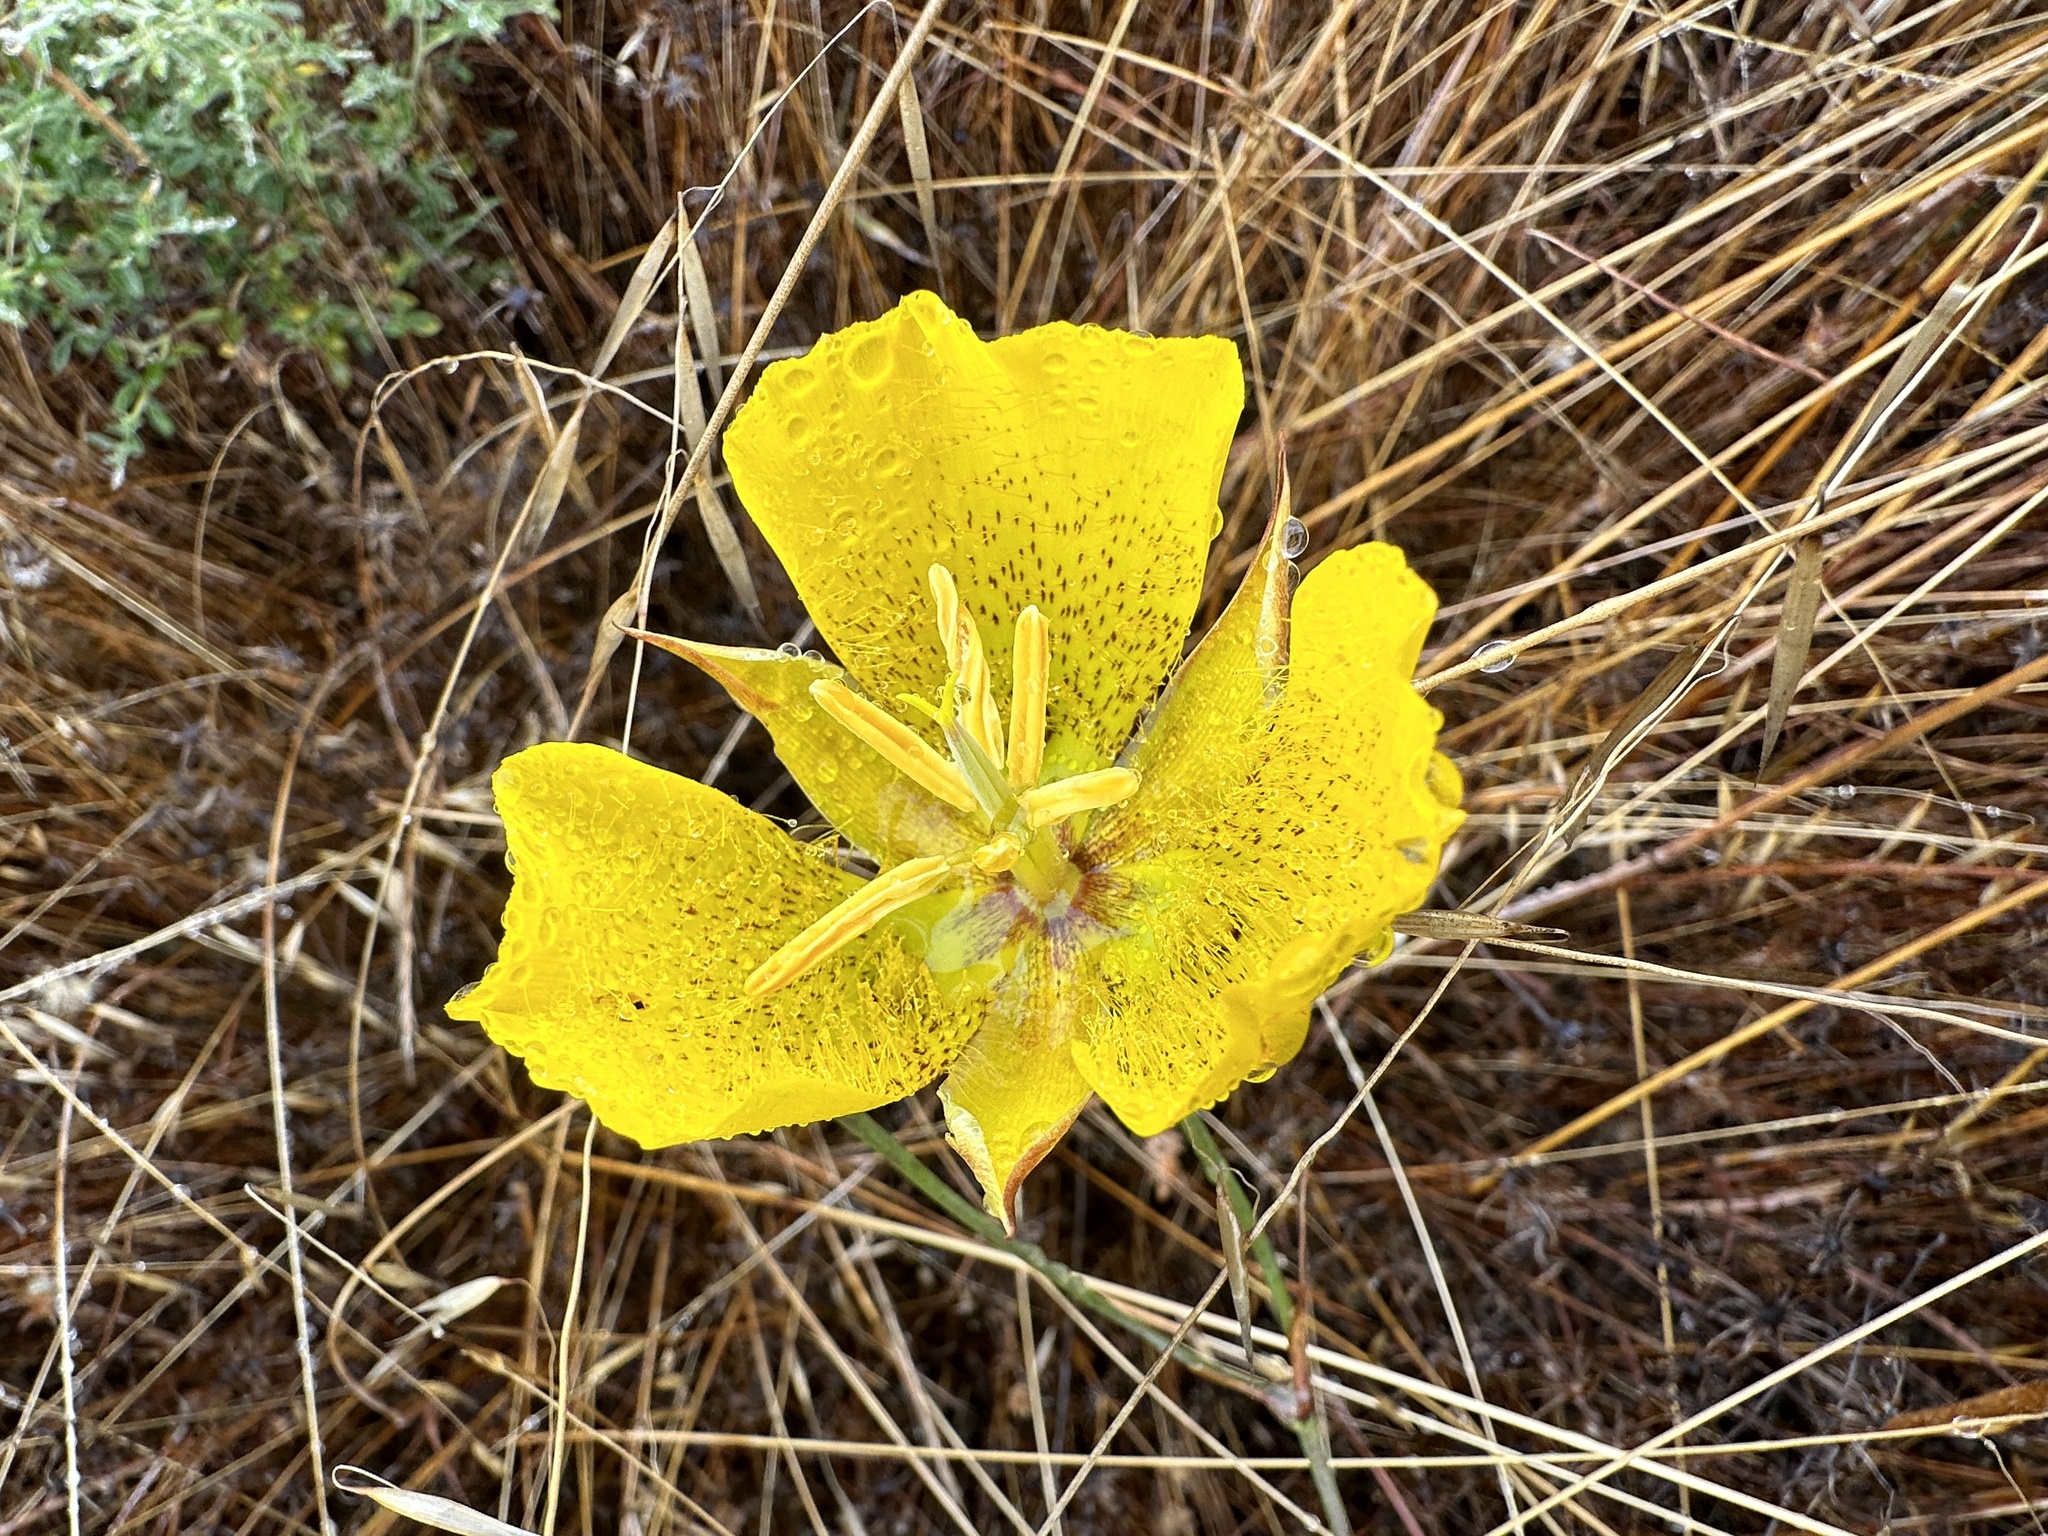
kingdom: Plantae
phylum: Tracheophyta
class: Liliopsida
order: Liliales
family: Liliaceae
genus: Calochortus
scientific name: Calochortus weedii
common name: Weed's mariposa-lily
